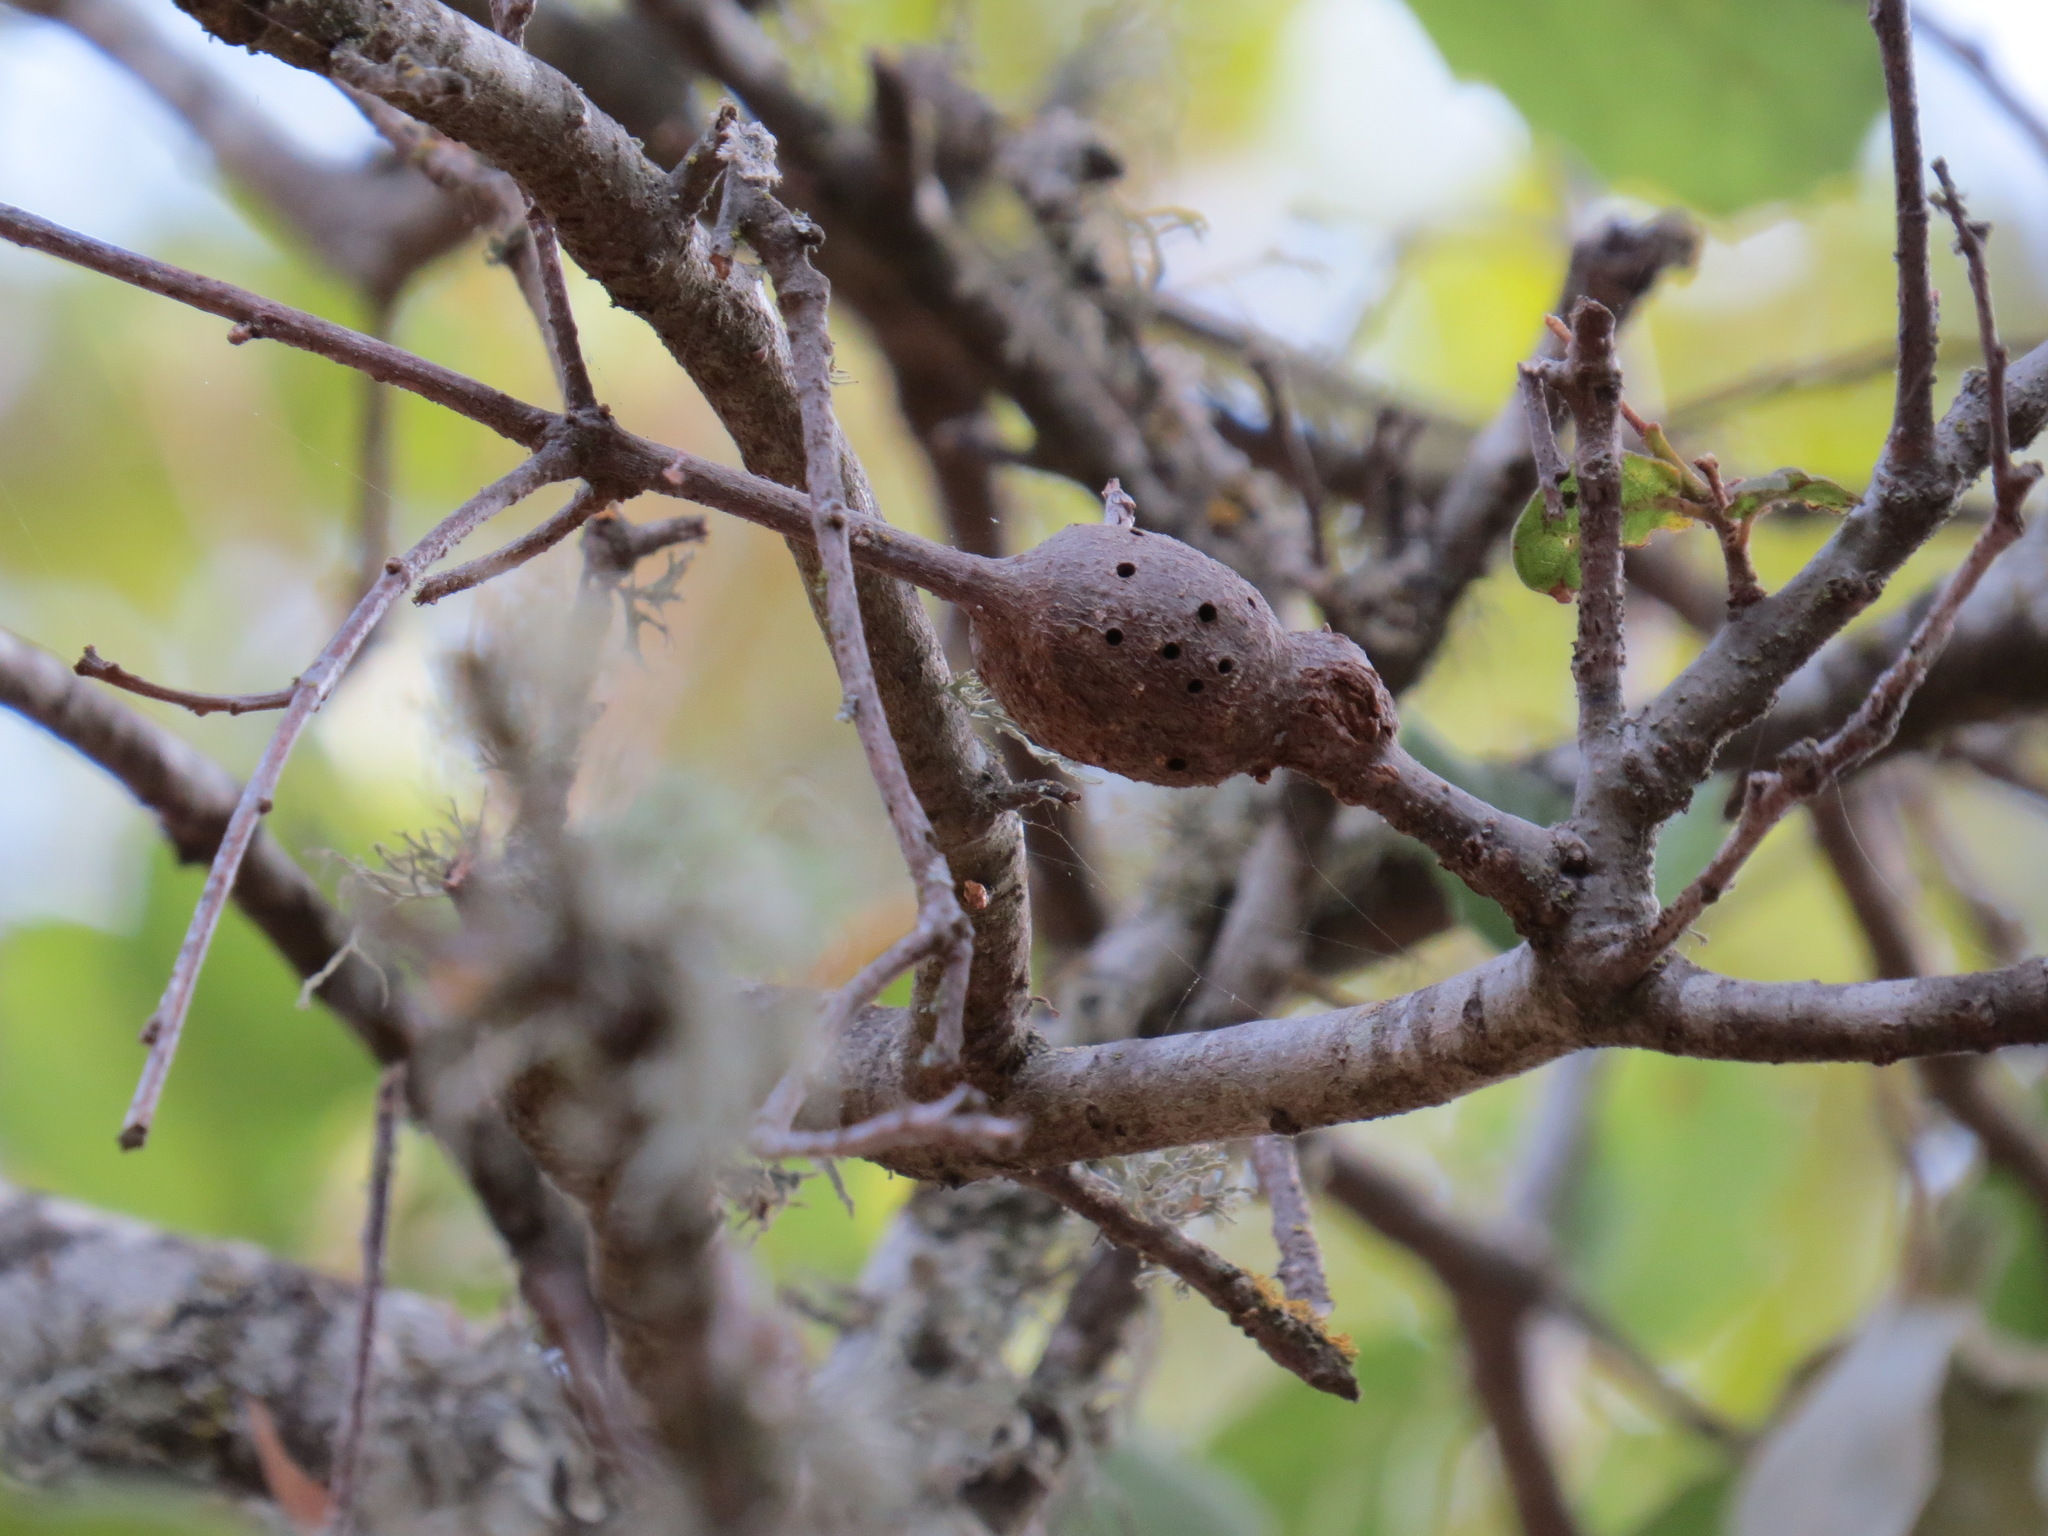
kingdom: Animalia
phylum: Arthropoda
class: Insecta
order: Hymenoptera
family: Cynipidae
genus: Callirhytis
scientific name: Callirhytis
